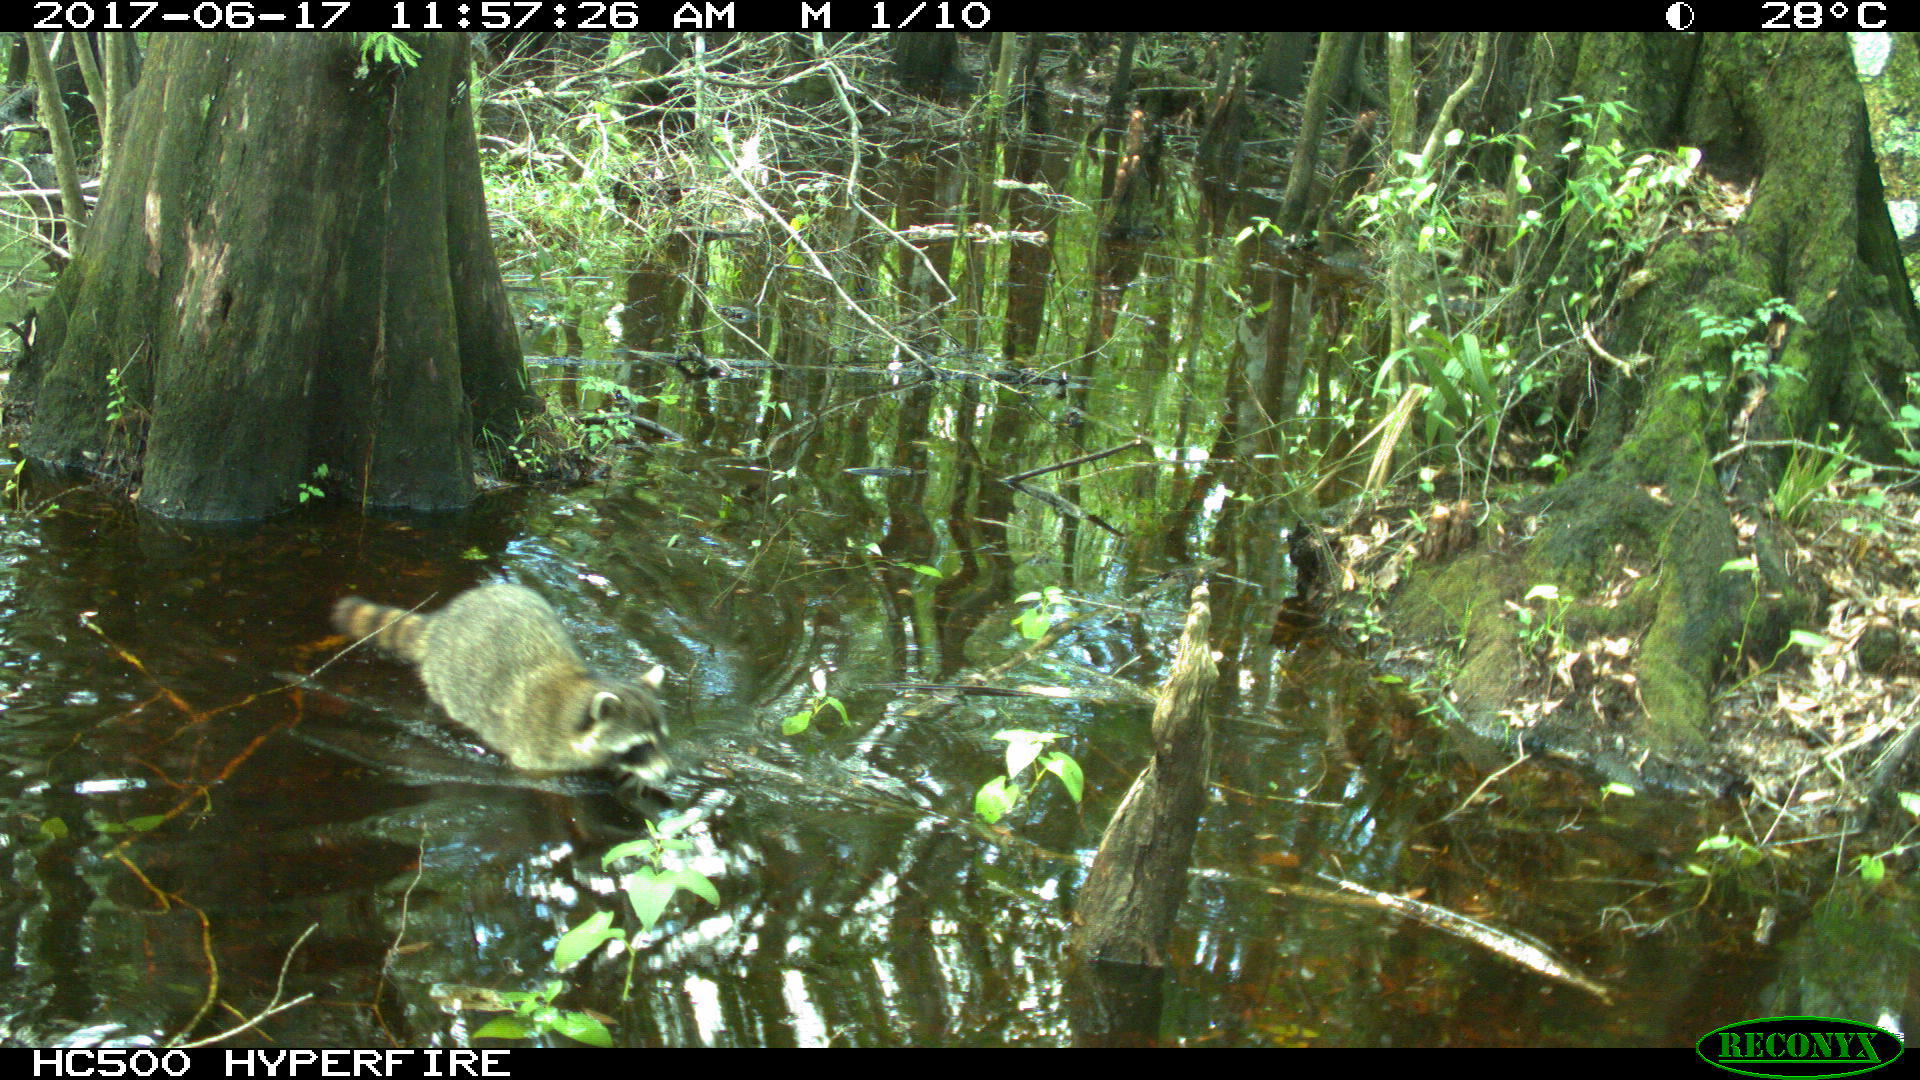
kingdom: Animalia
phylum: Chordata
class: Mammalia
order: Carnivora
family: Procyonidae
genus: Procyon
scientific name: Procyon lotor
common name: Raccoon
